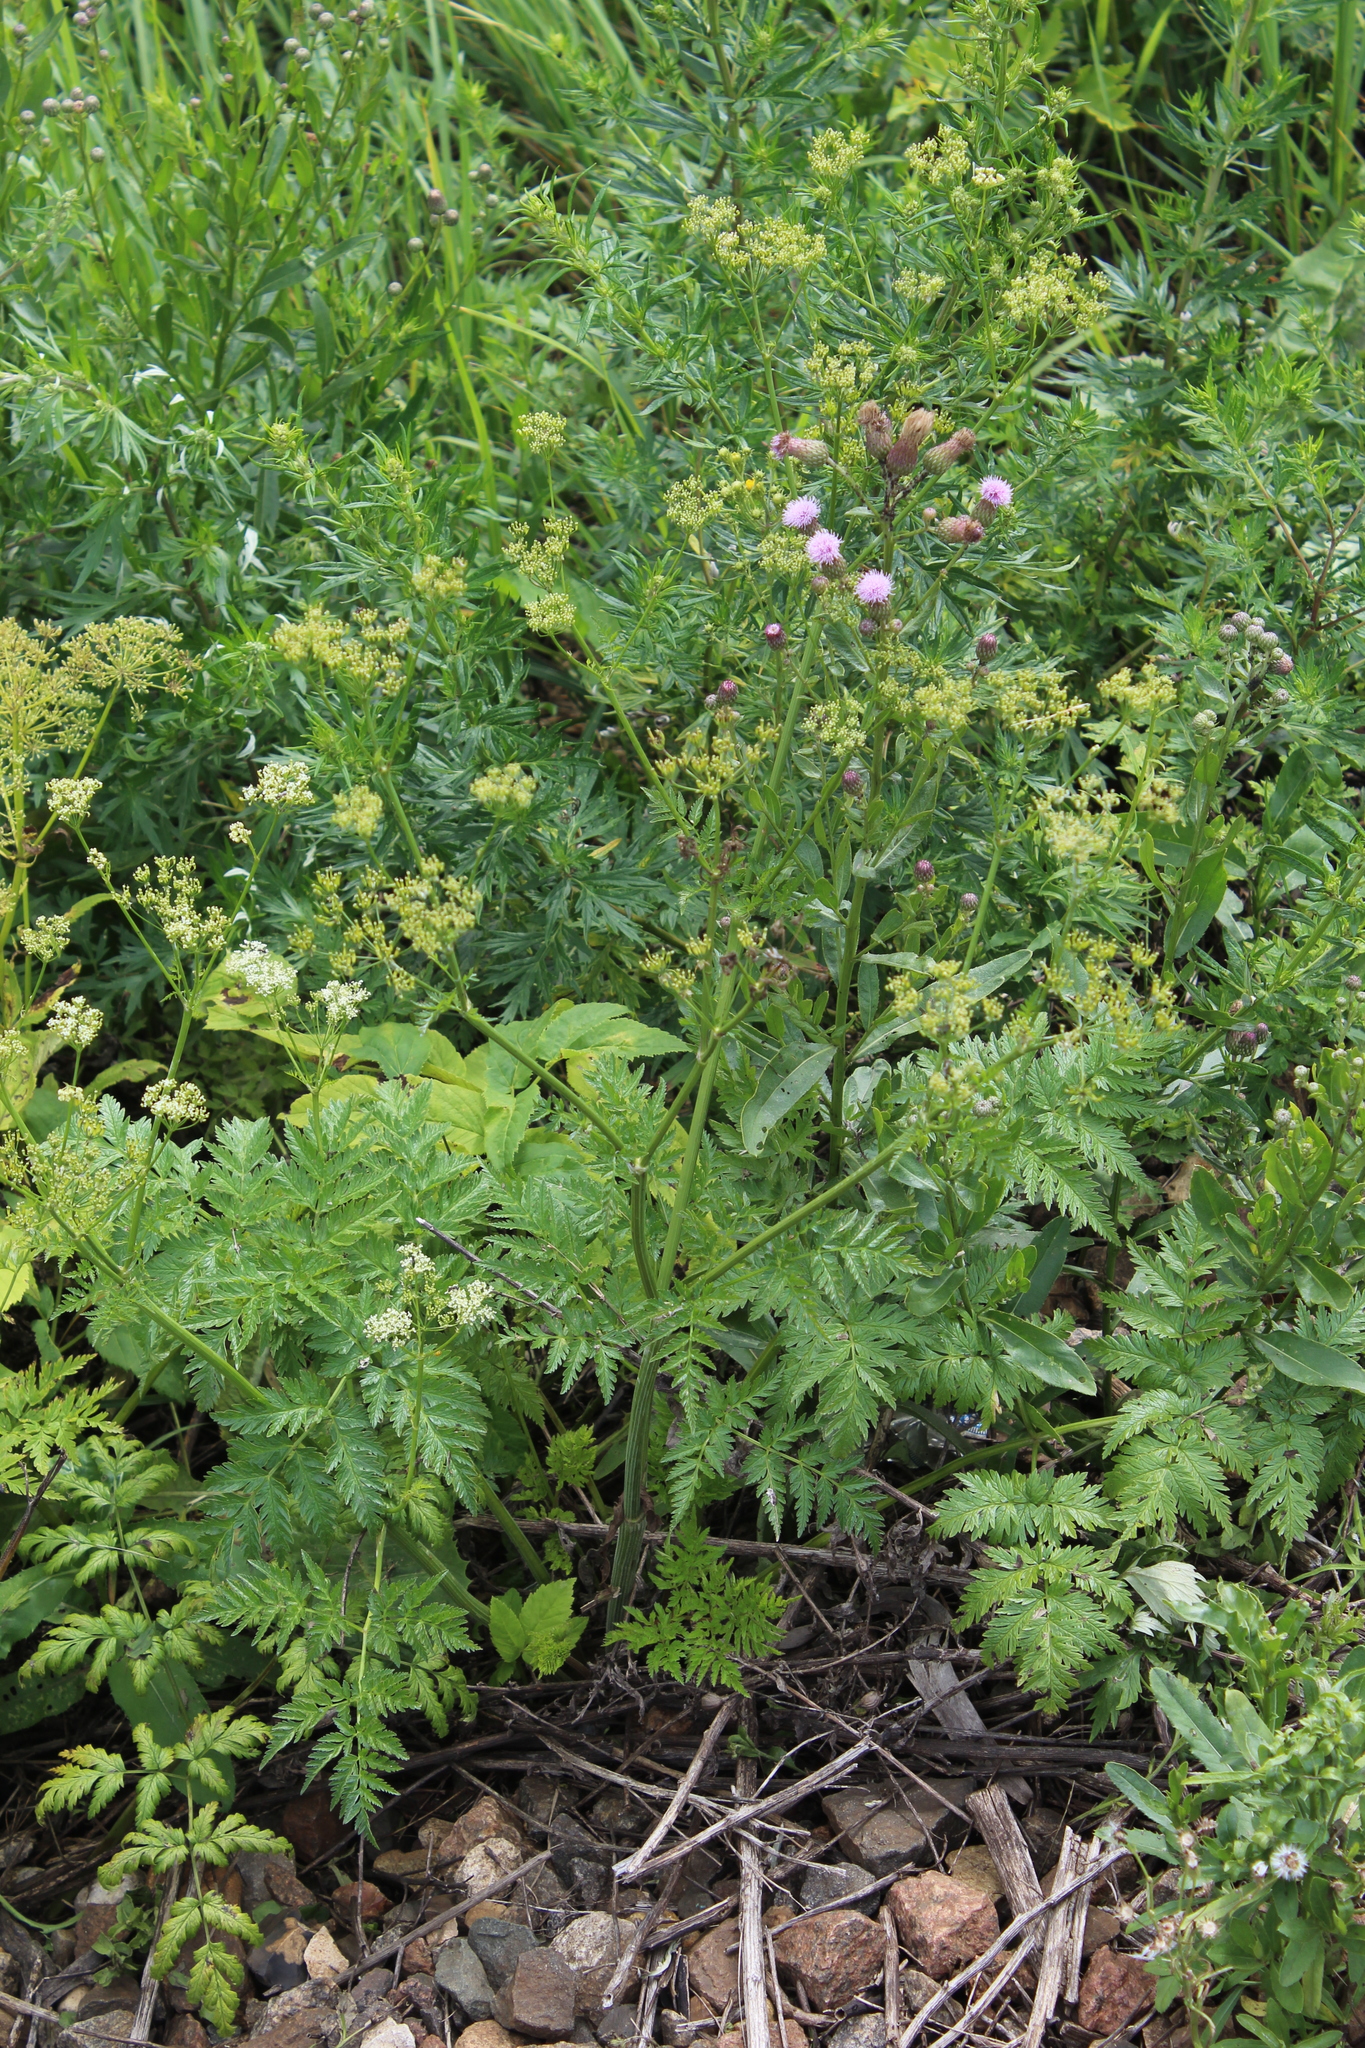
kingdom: Plantae
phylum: Tracheophyta
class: Magnoliopsida
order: Apiales
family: Apiaceae
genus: Anthriscus
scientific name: Anthriscus sylvestris
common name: Cow parsley
